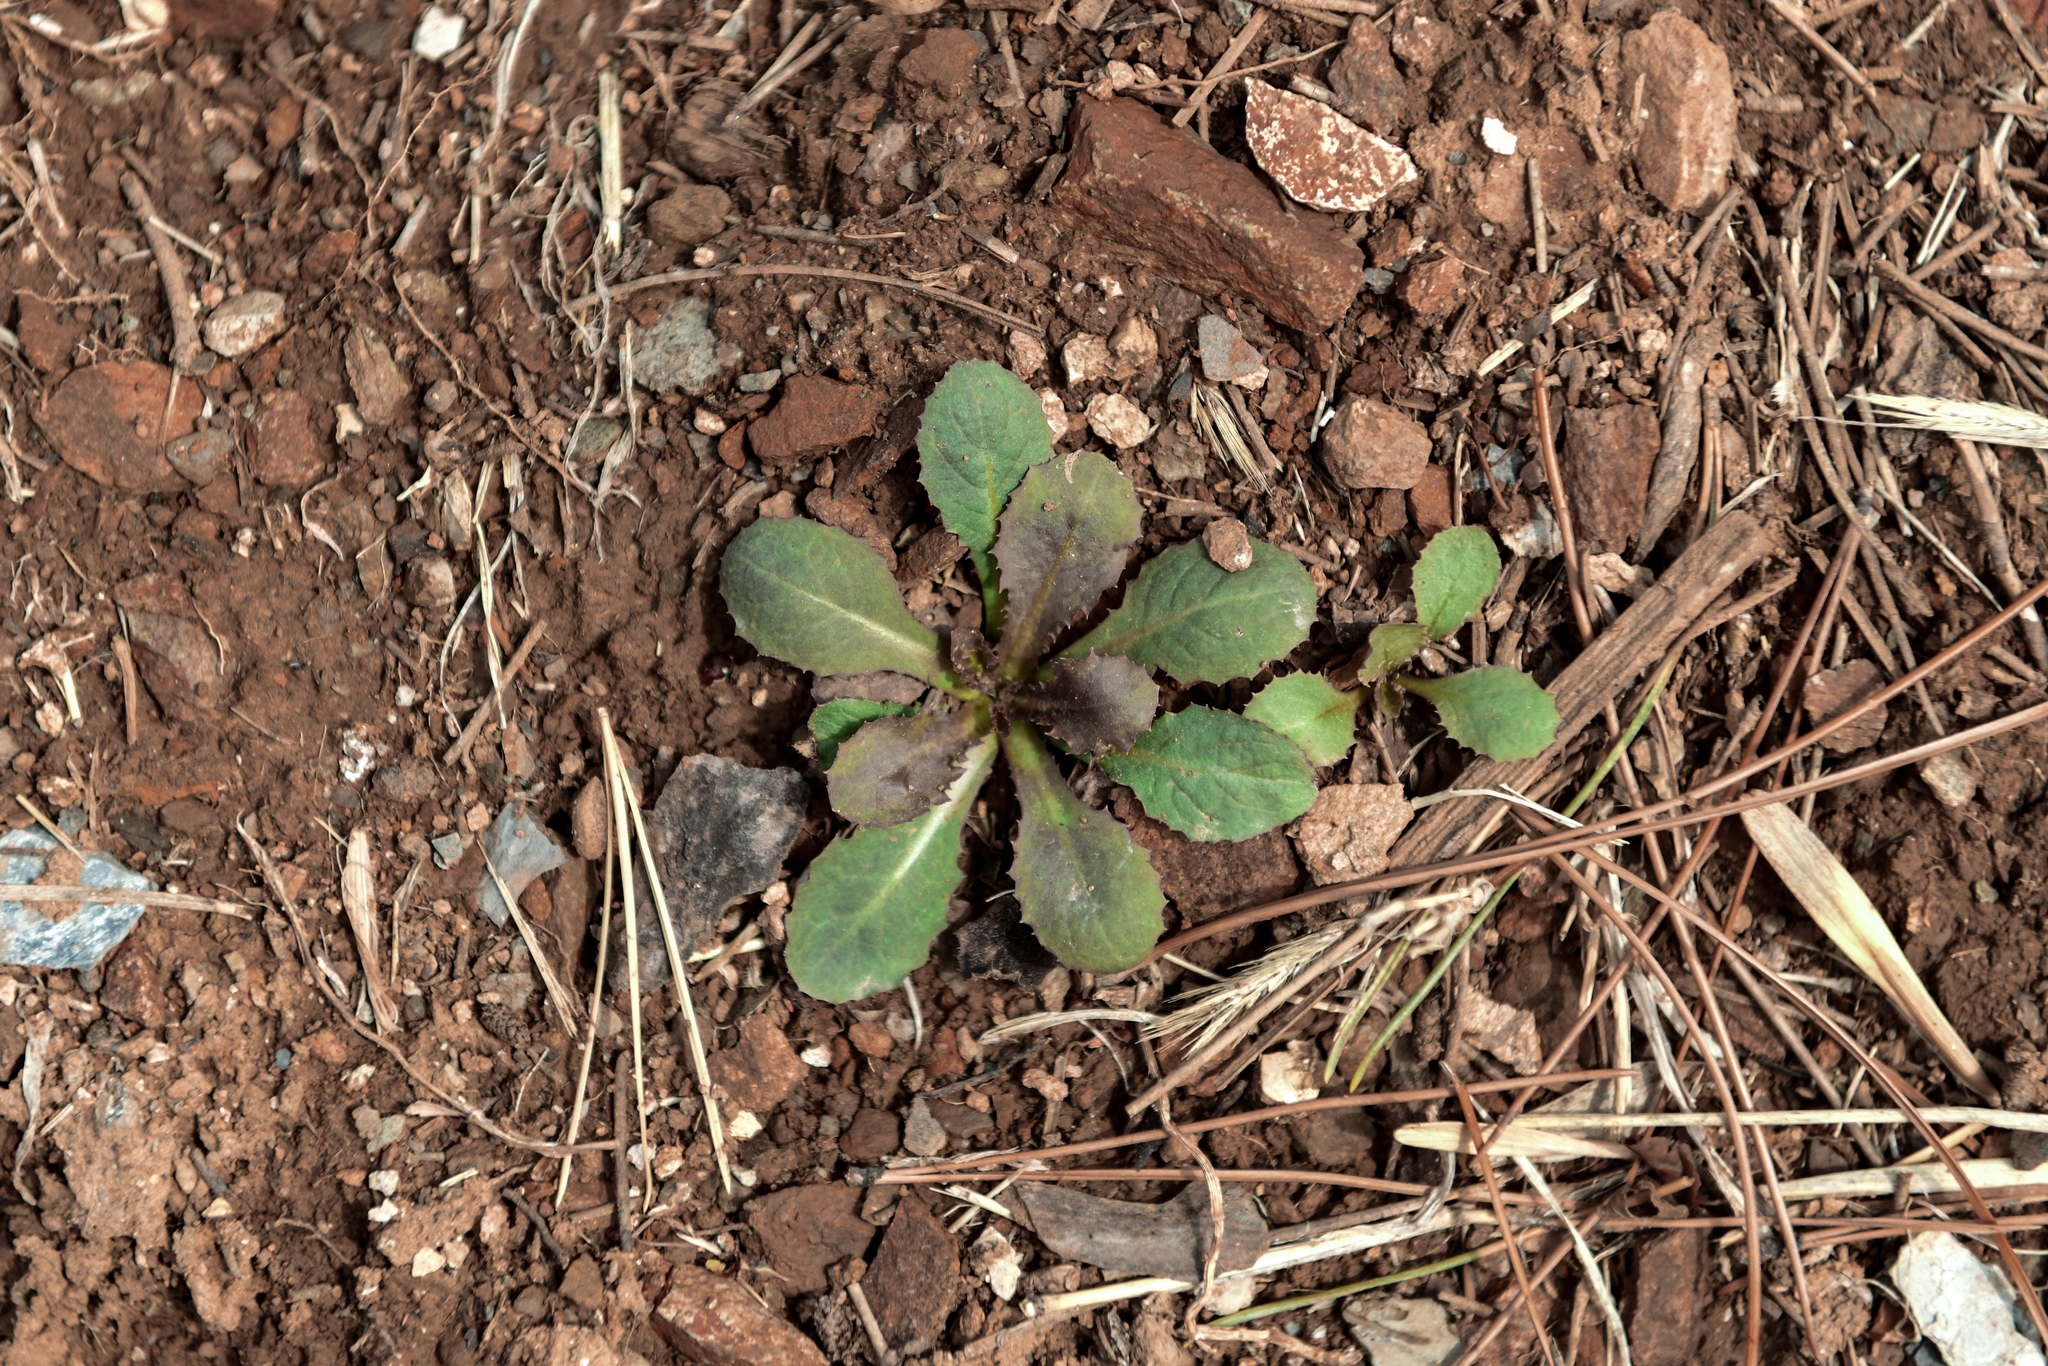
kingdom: Plantae
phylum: Tracheophyta
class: Magnoliopsida
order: Asterales
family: Asteraceae
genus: Crepidiastrum
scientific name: Crepidiastrum sonchifolium
